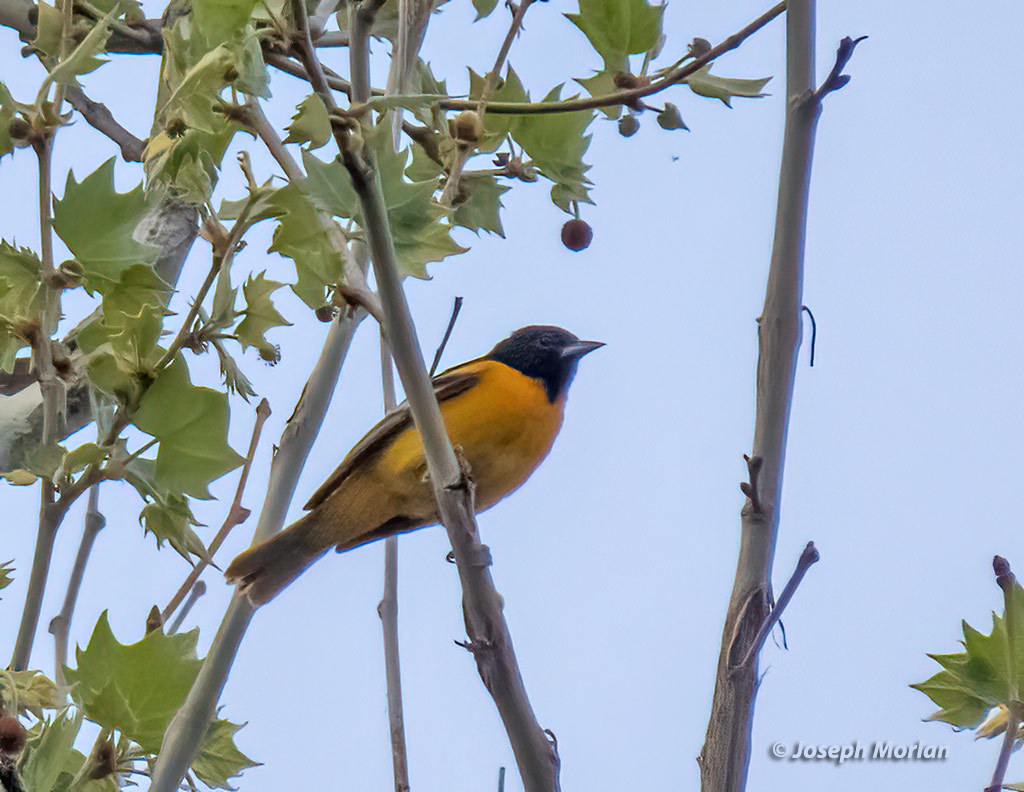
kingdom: Animalia
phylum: Chordata
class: Aves
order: Passeriformes
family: Icteridae
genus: Icterus
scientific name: Icterus galbula
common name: Baltimore oriole
